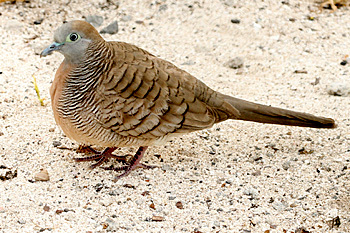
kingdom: Animalia
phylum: Chordata
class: Aves
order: Columbiformes
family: Columbidae
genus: Geopelia
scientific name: Geopelia striata
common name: Zebra dove
